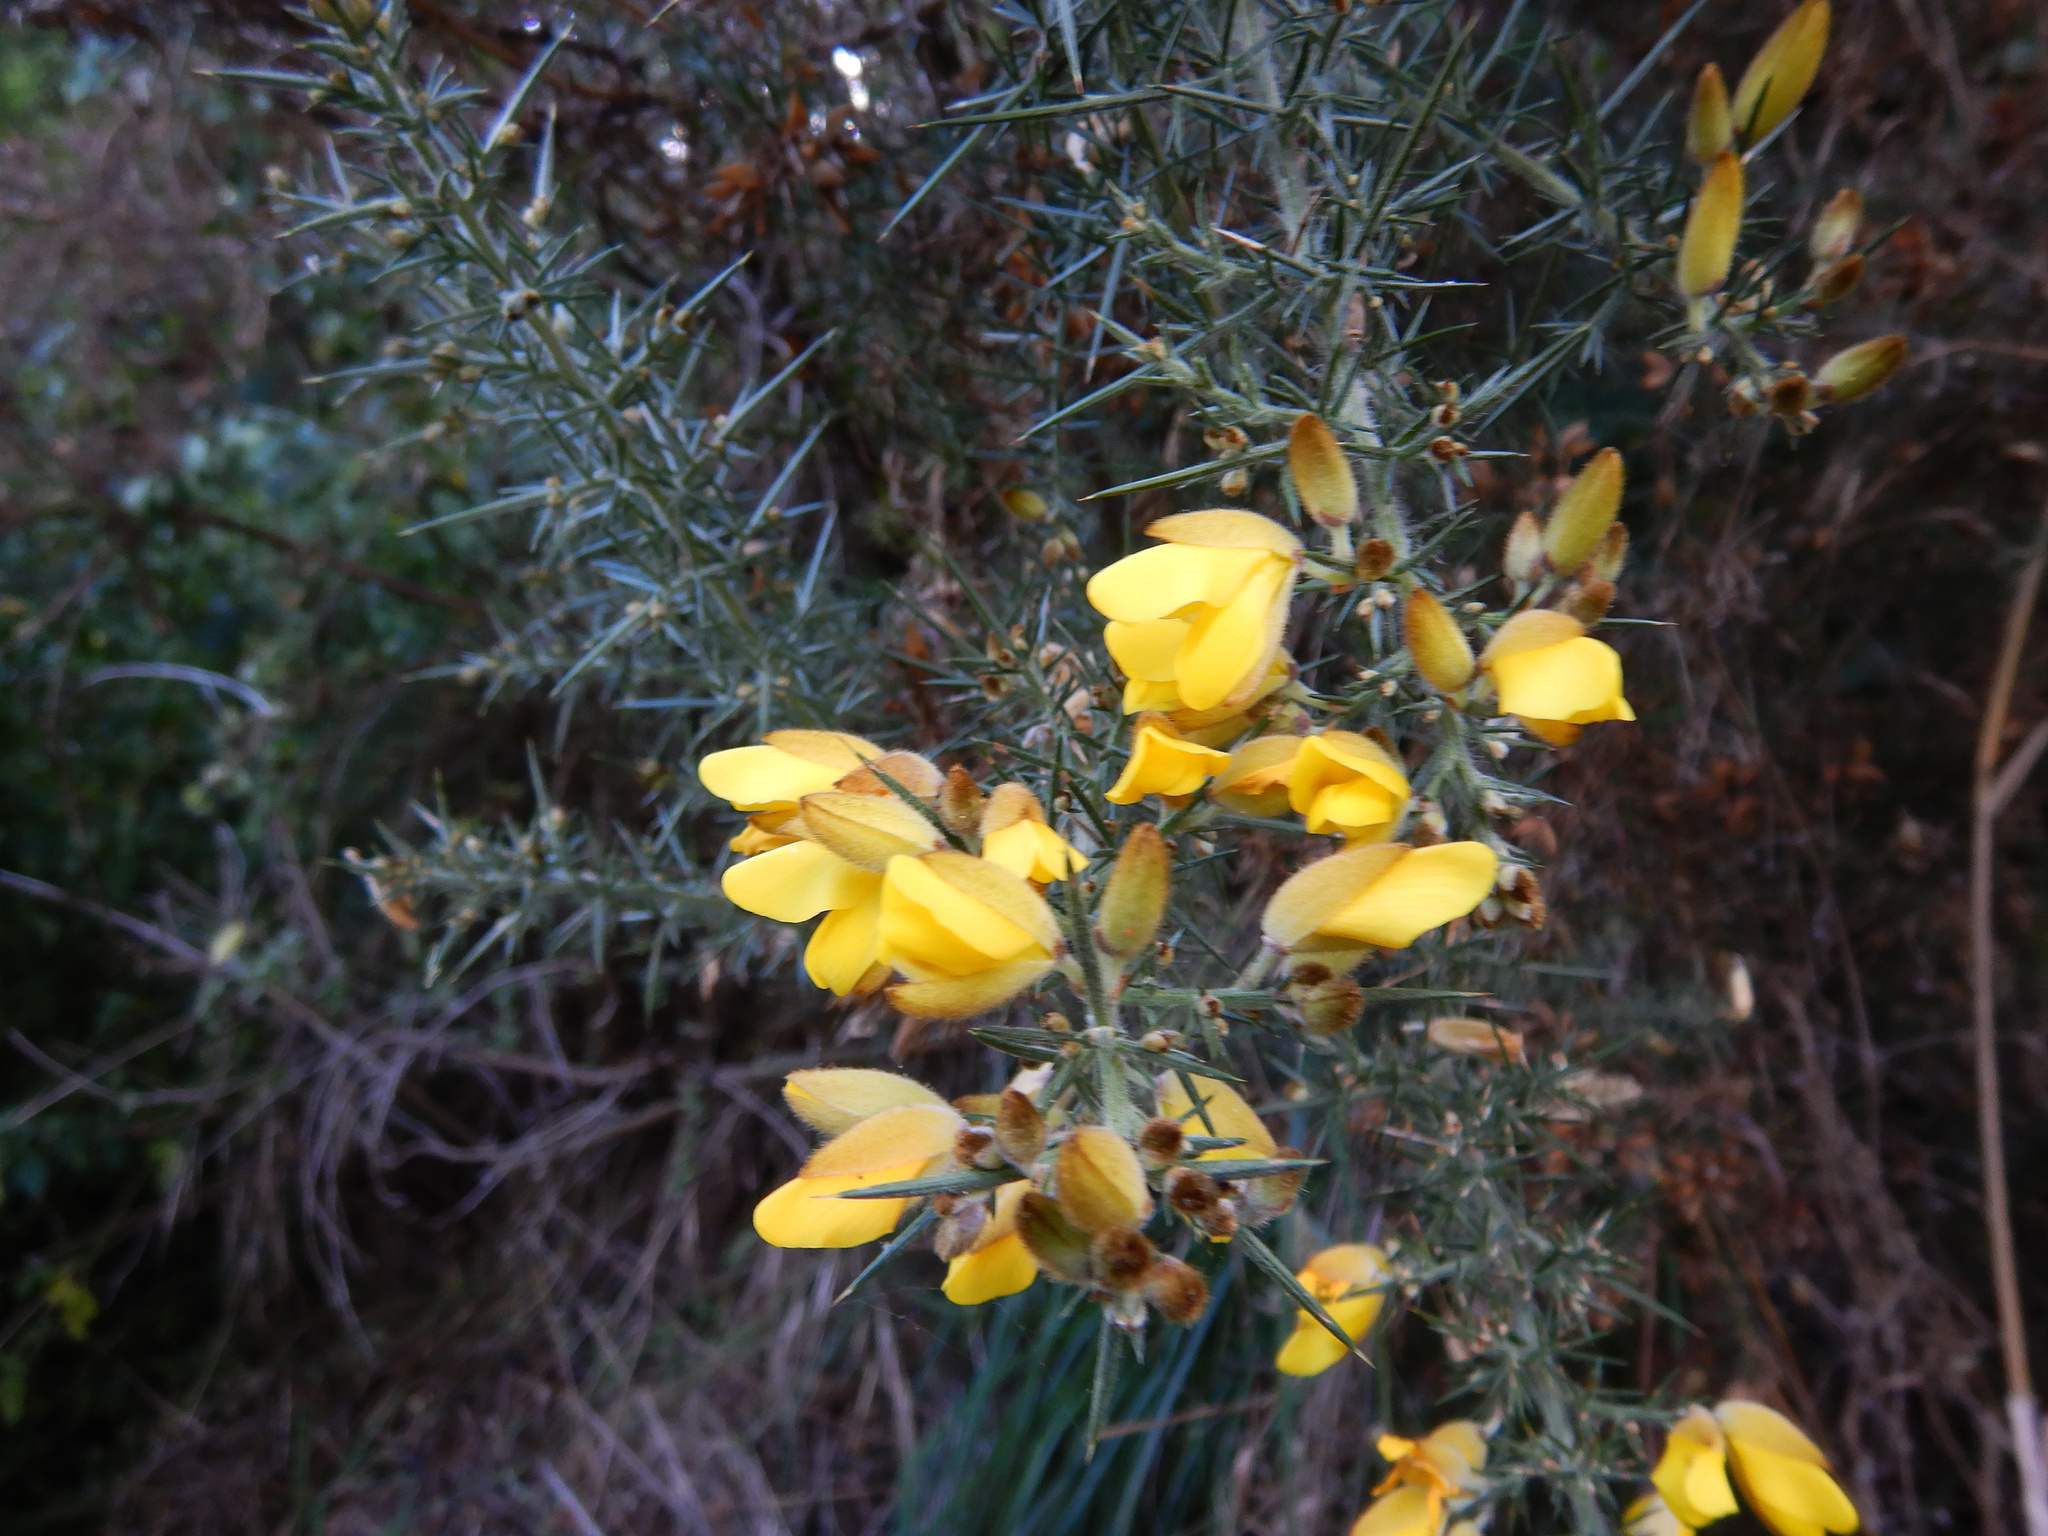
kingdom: Plantae
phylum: Tracheophyta
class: Magnoliopsida
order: Fabales
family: Fabaceae
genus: Ulex
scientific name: Ulex europaeus
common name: Common gorse
